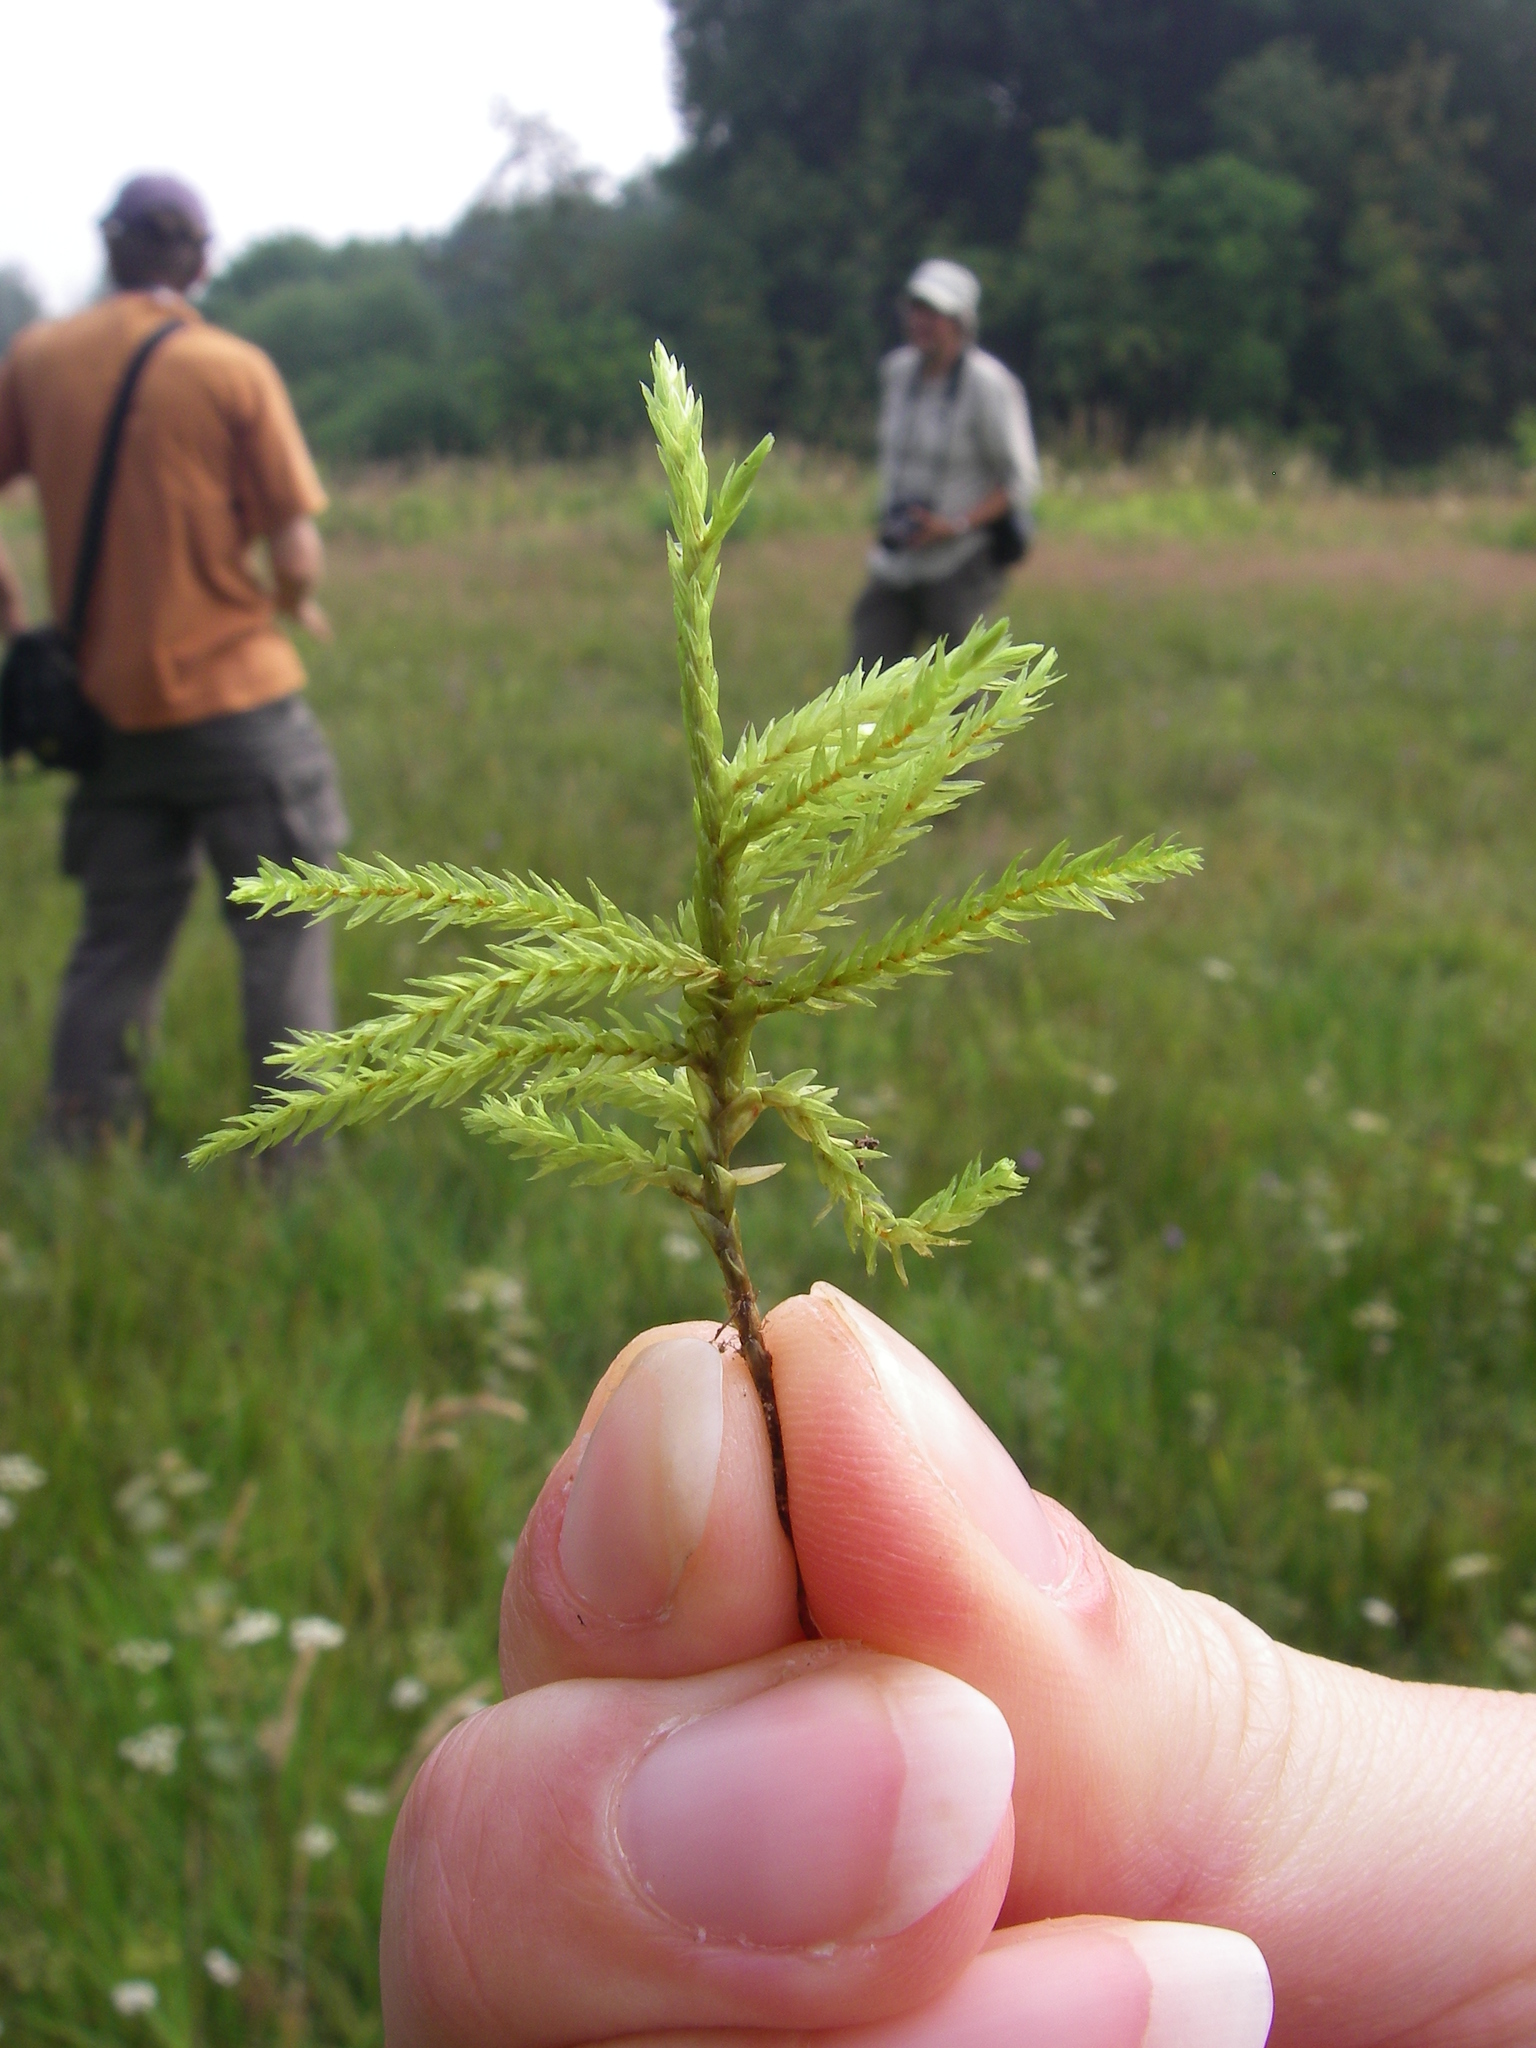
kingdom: Plantae
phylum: Bryophyta
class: Bryopsida
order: Hypnales
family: Climaciaceae
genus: Climacium
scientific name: Climacium dendroides
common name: Northern tree moss
